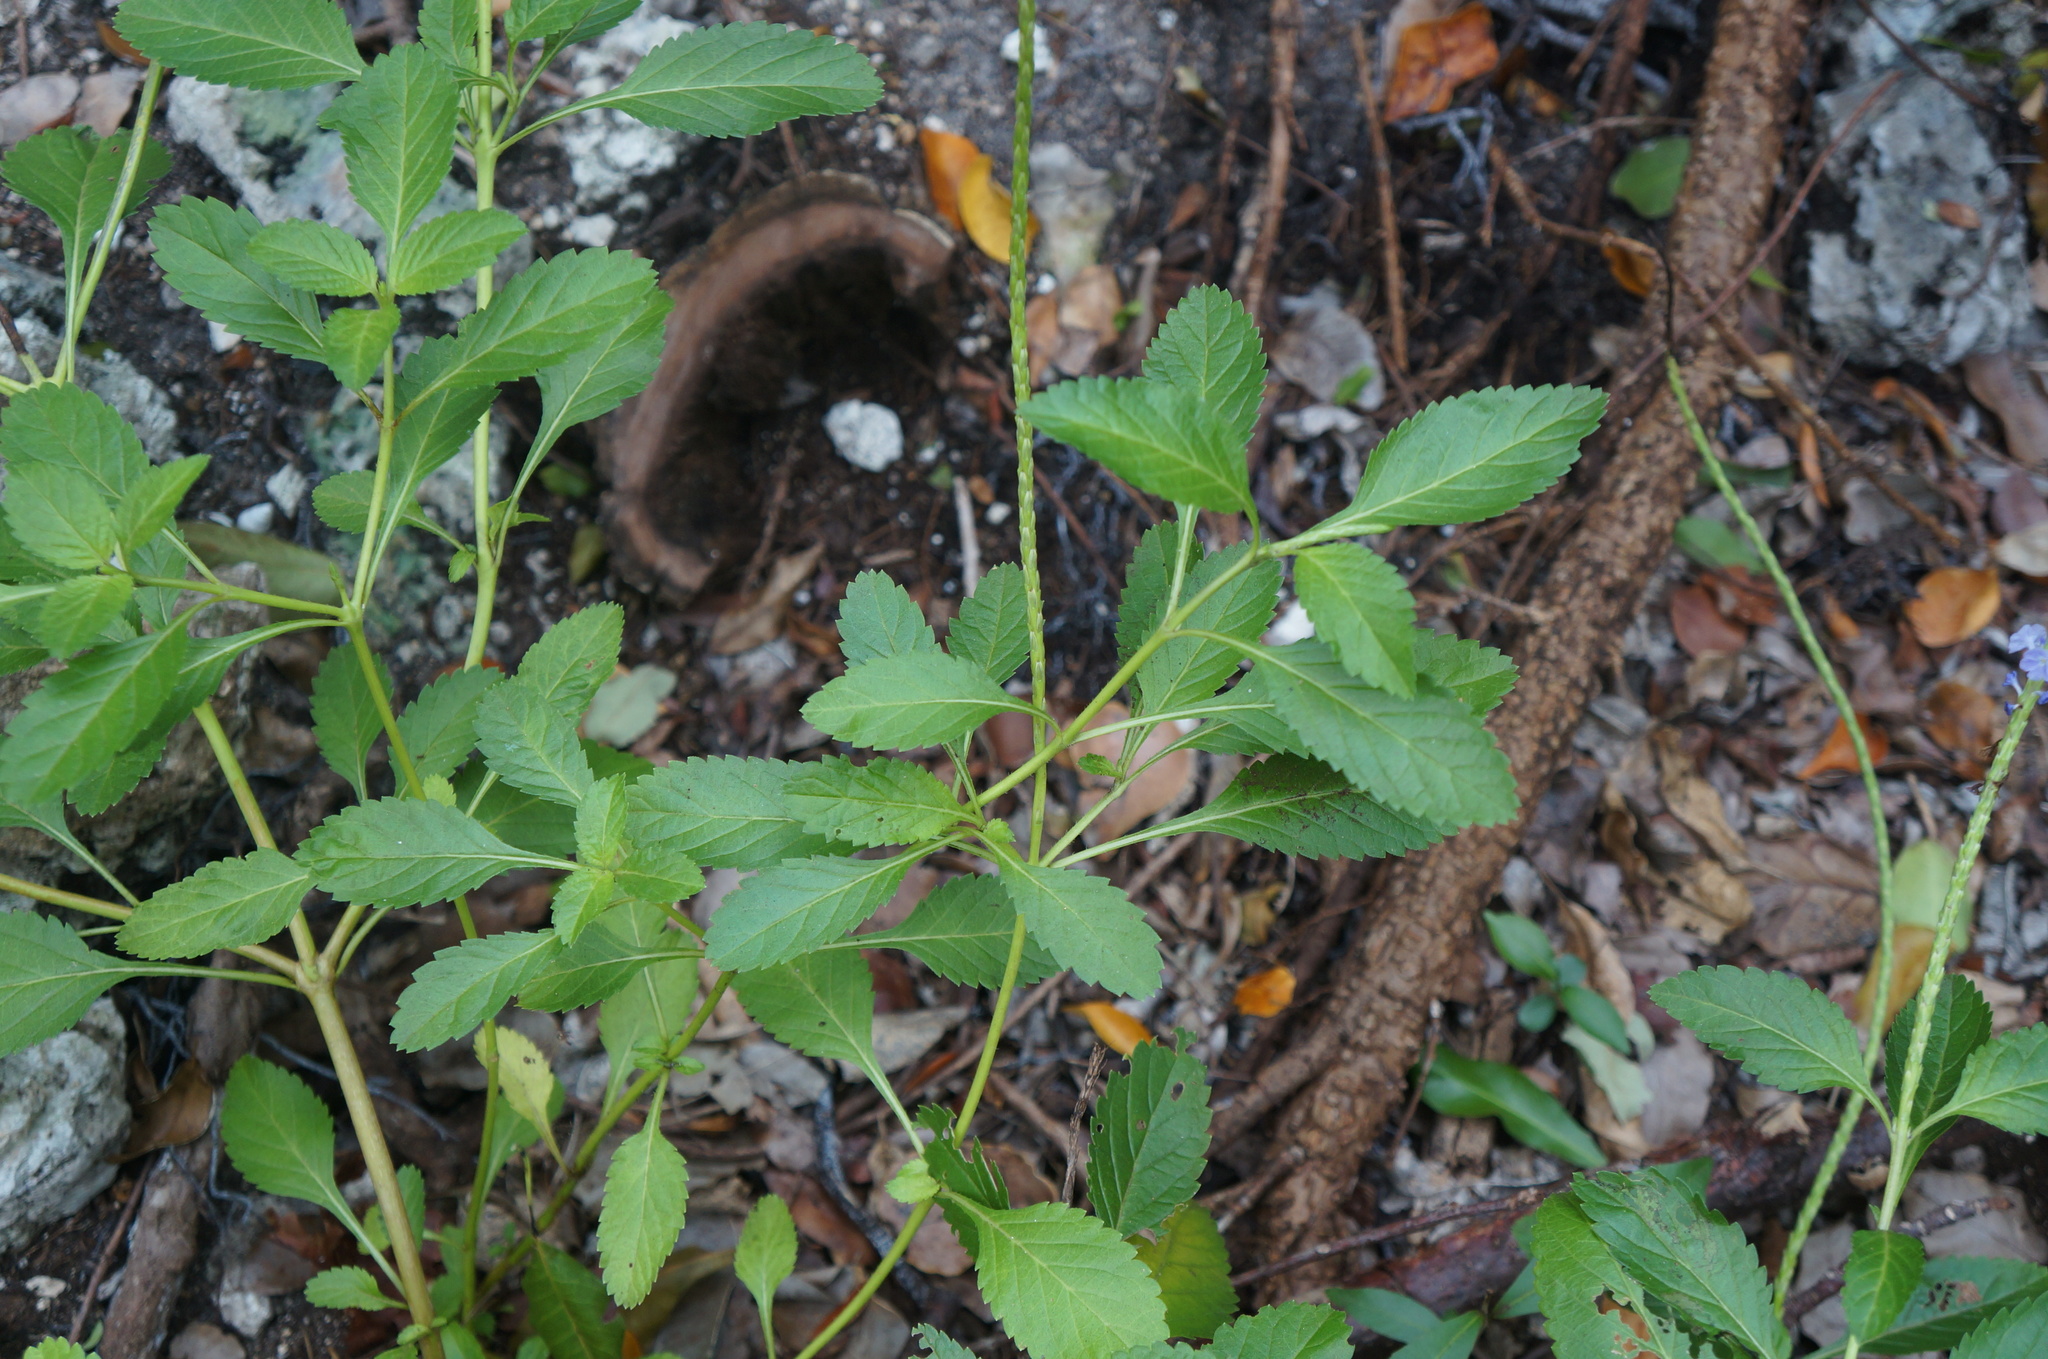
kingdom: Plantae
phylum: Tracheophyta
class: Magnoliopsida
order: Lamiales
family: Verbenaceae
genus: Stachytarpheta
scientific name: Stachytarpheta jamaicensis
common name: Light-blue snakeweed
